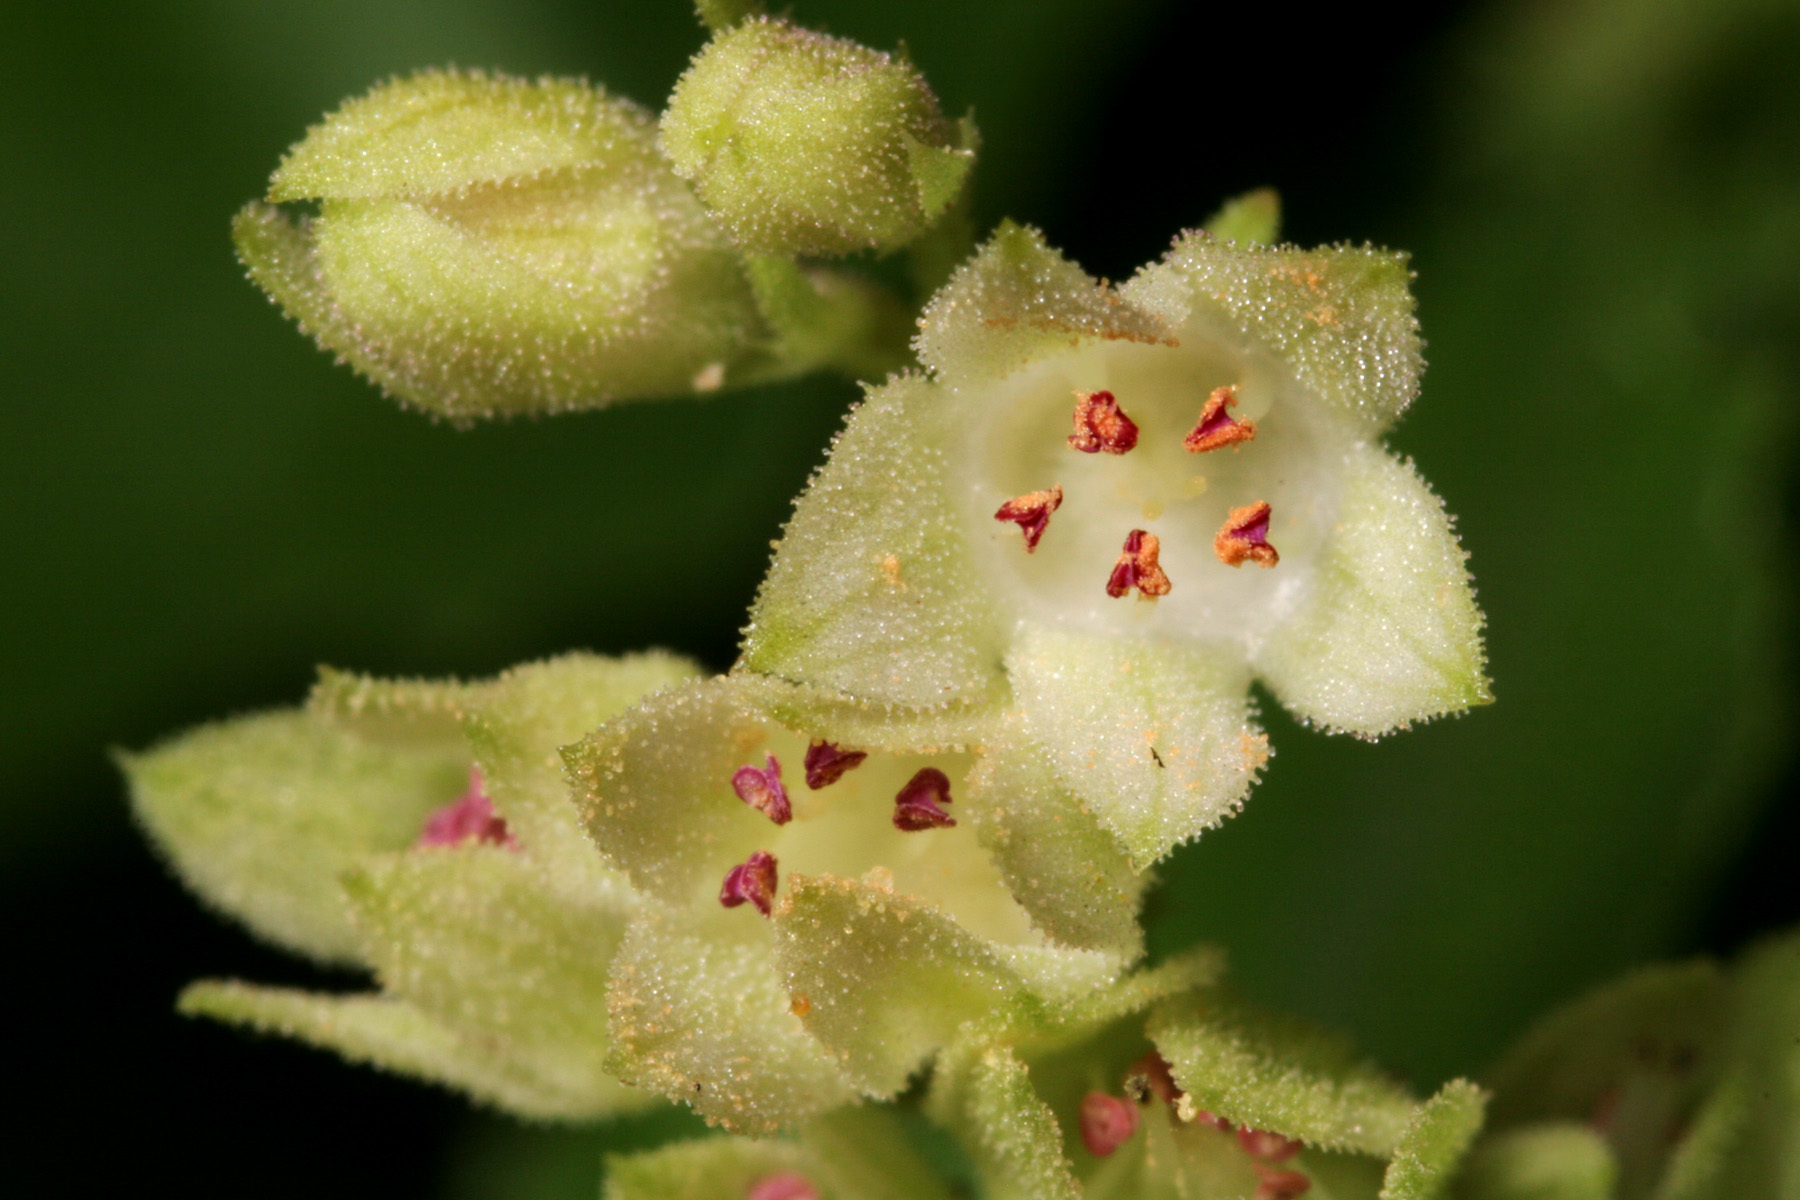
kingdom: Plantae
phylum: Tracheophyta
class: Magnoliopsida
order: Saxifragales
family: Saxifragaceae
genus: Heuchera
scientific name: Heuchera woodsiaphila
